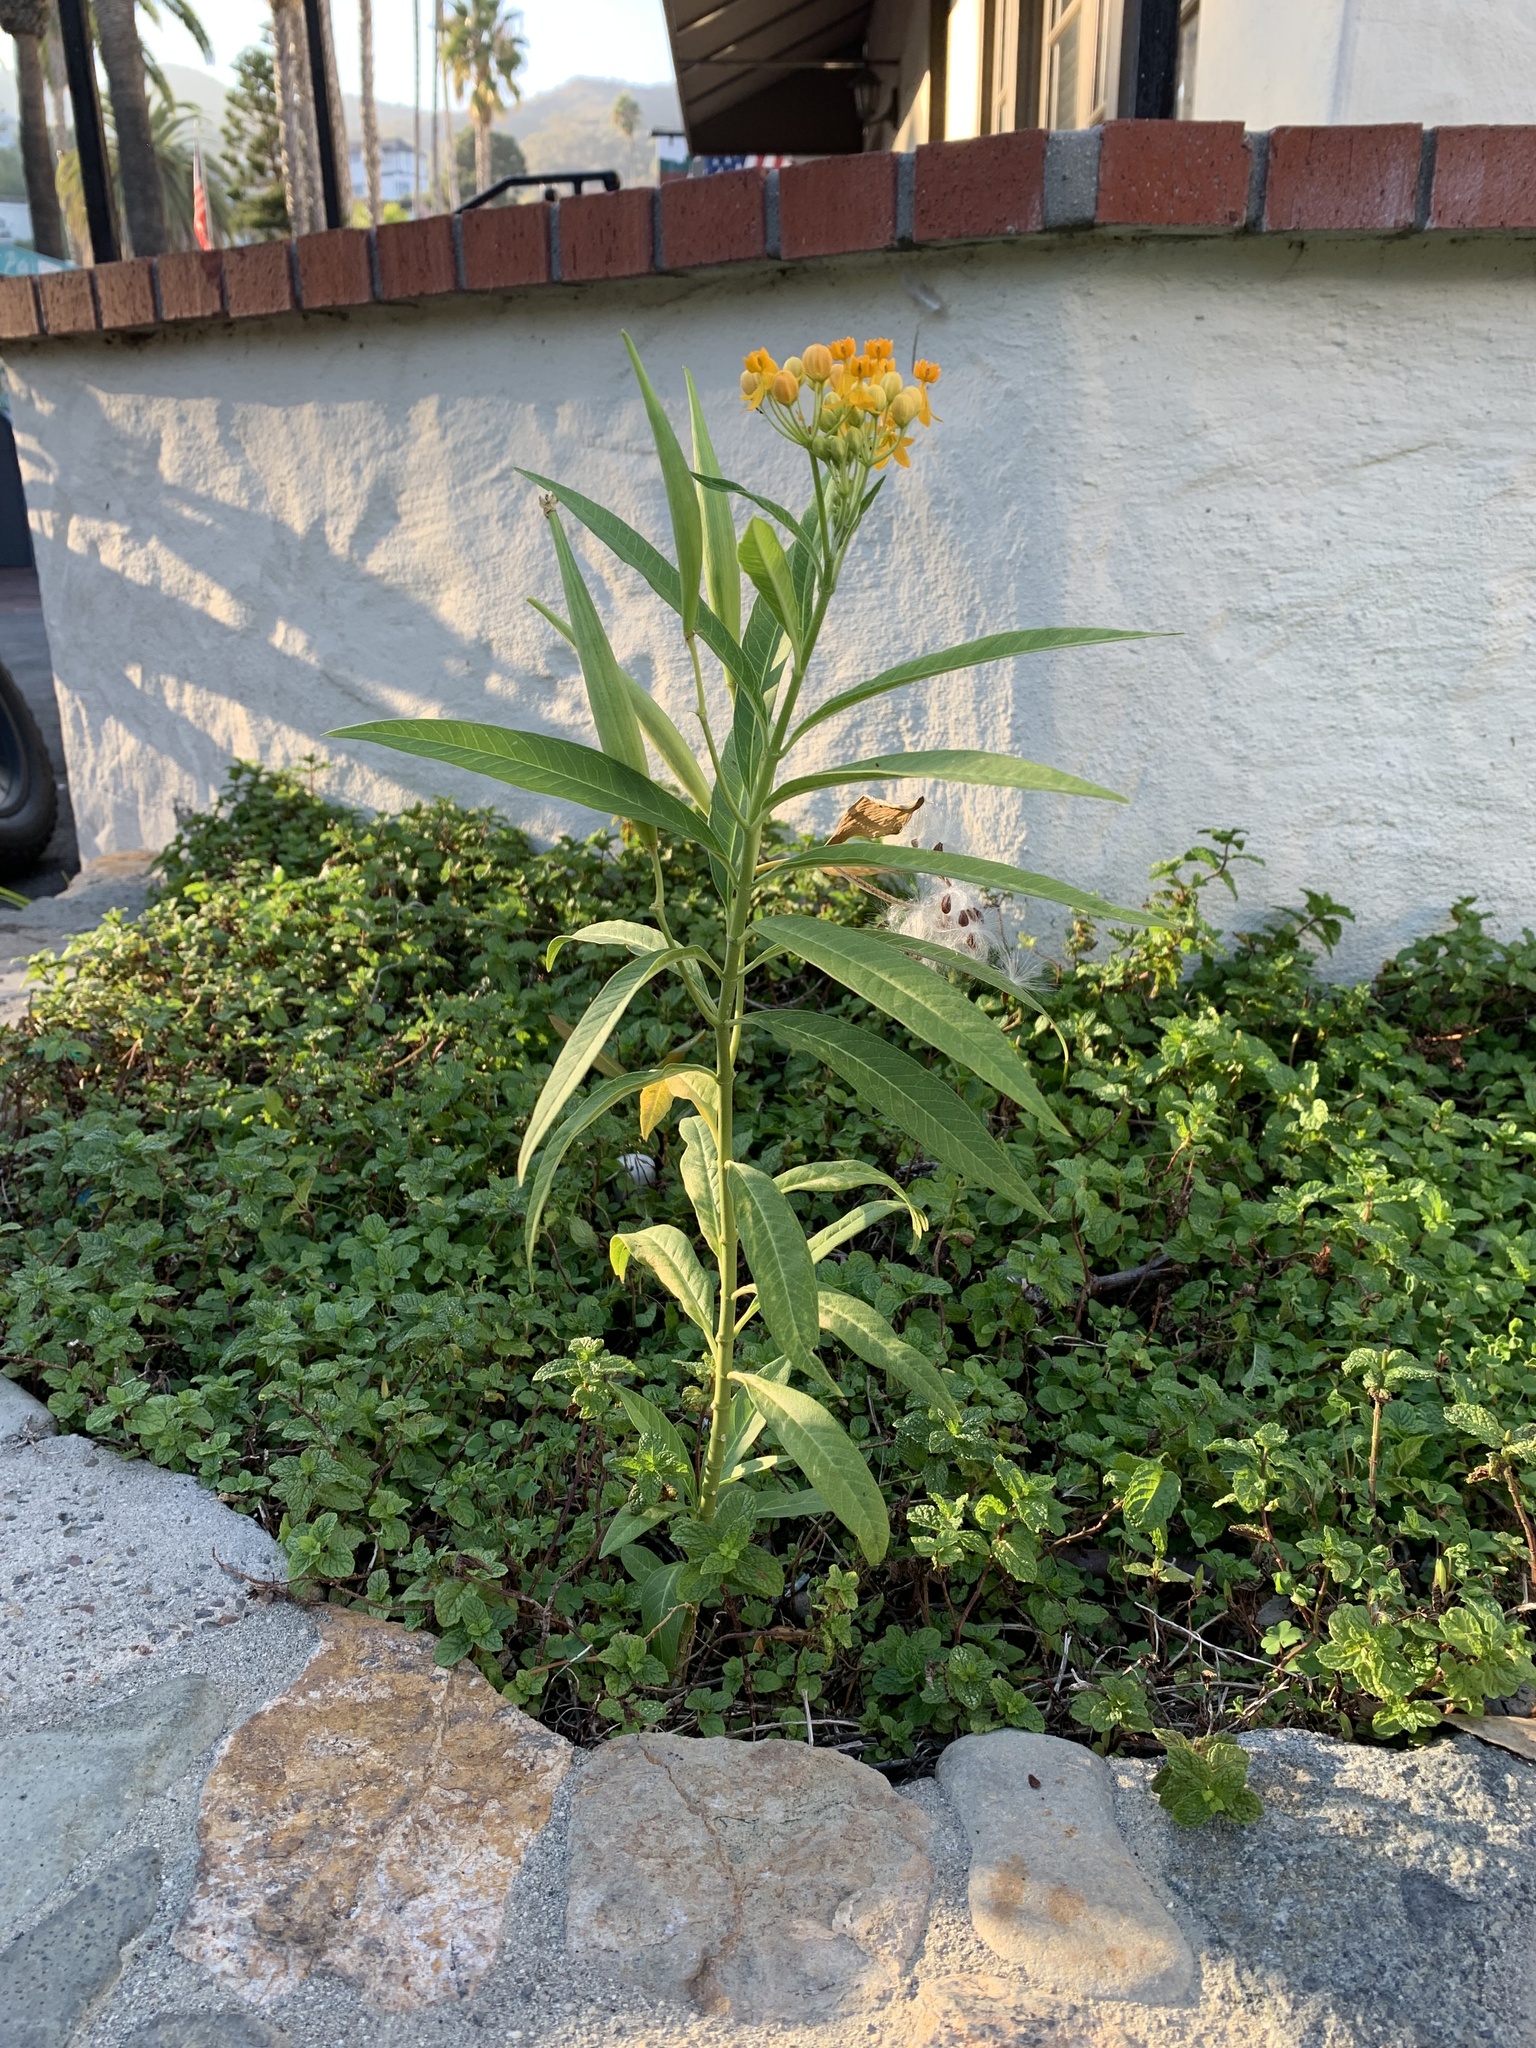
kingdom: Plantae
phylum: Tracheophyta
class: Magnoliopsida
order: Gentianales
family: Apocynaceae
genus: Asclepias
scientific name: Asclepias curassavica
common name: Bloodflower
